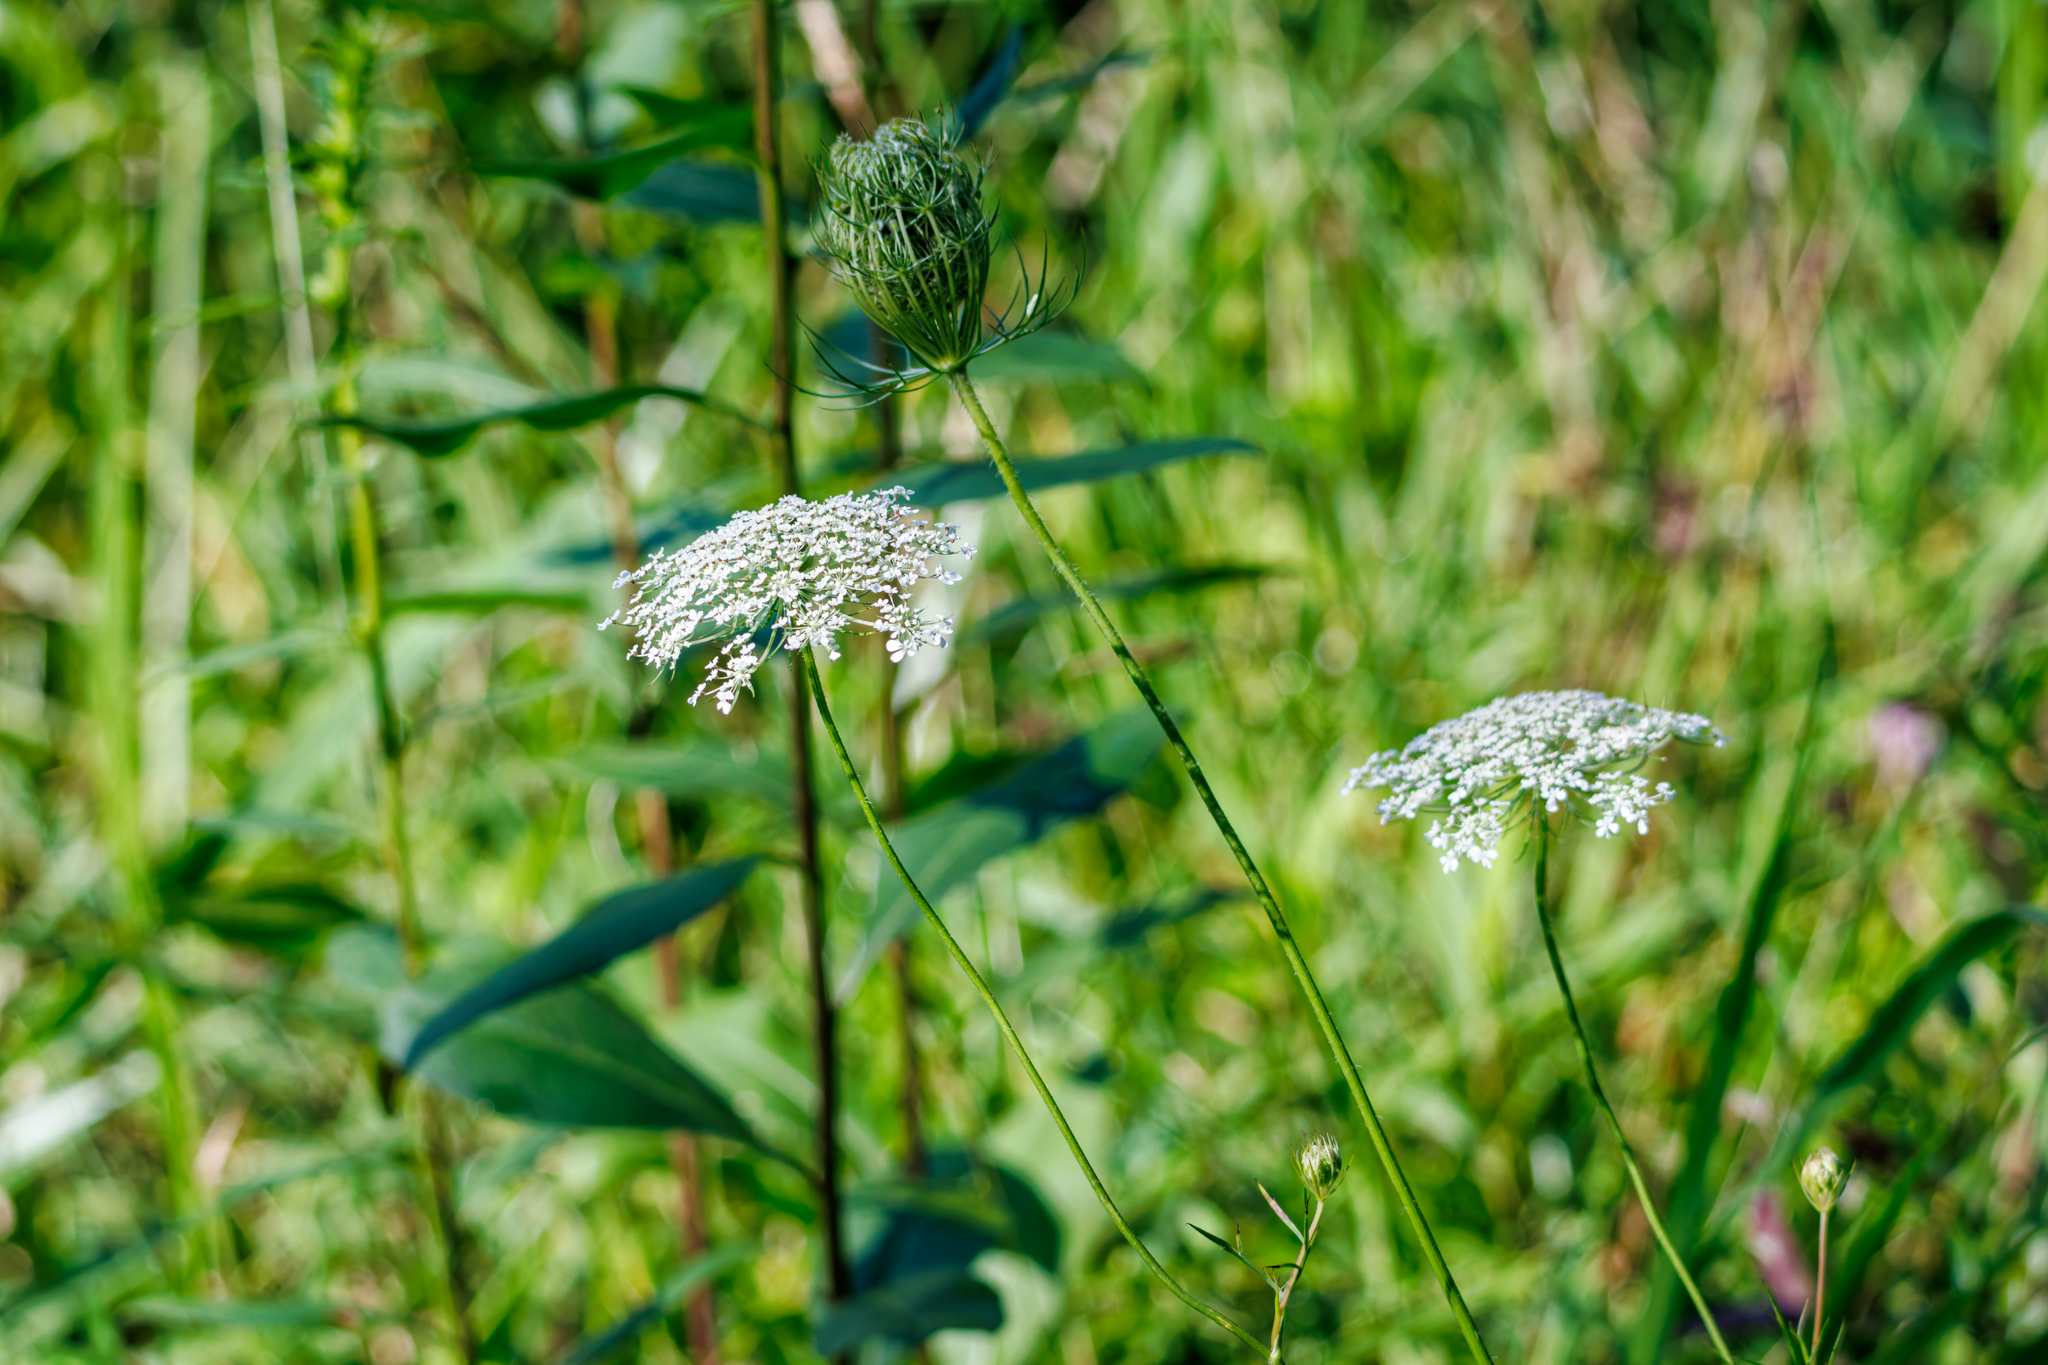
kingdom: Plantae
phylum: Tracheophyta
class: Magnoliopsida
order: Apiales
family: Apiaceae
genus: Daucus
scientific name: Daucus carota
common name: Wild carrot
